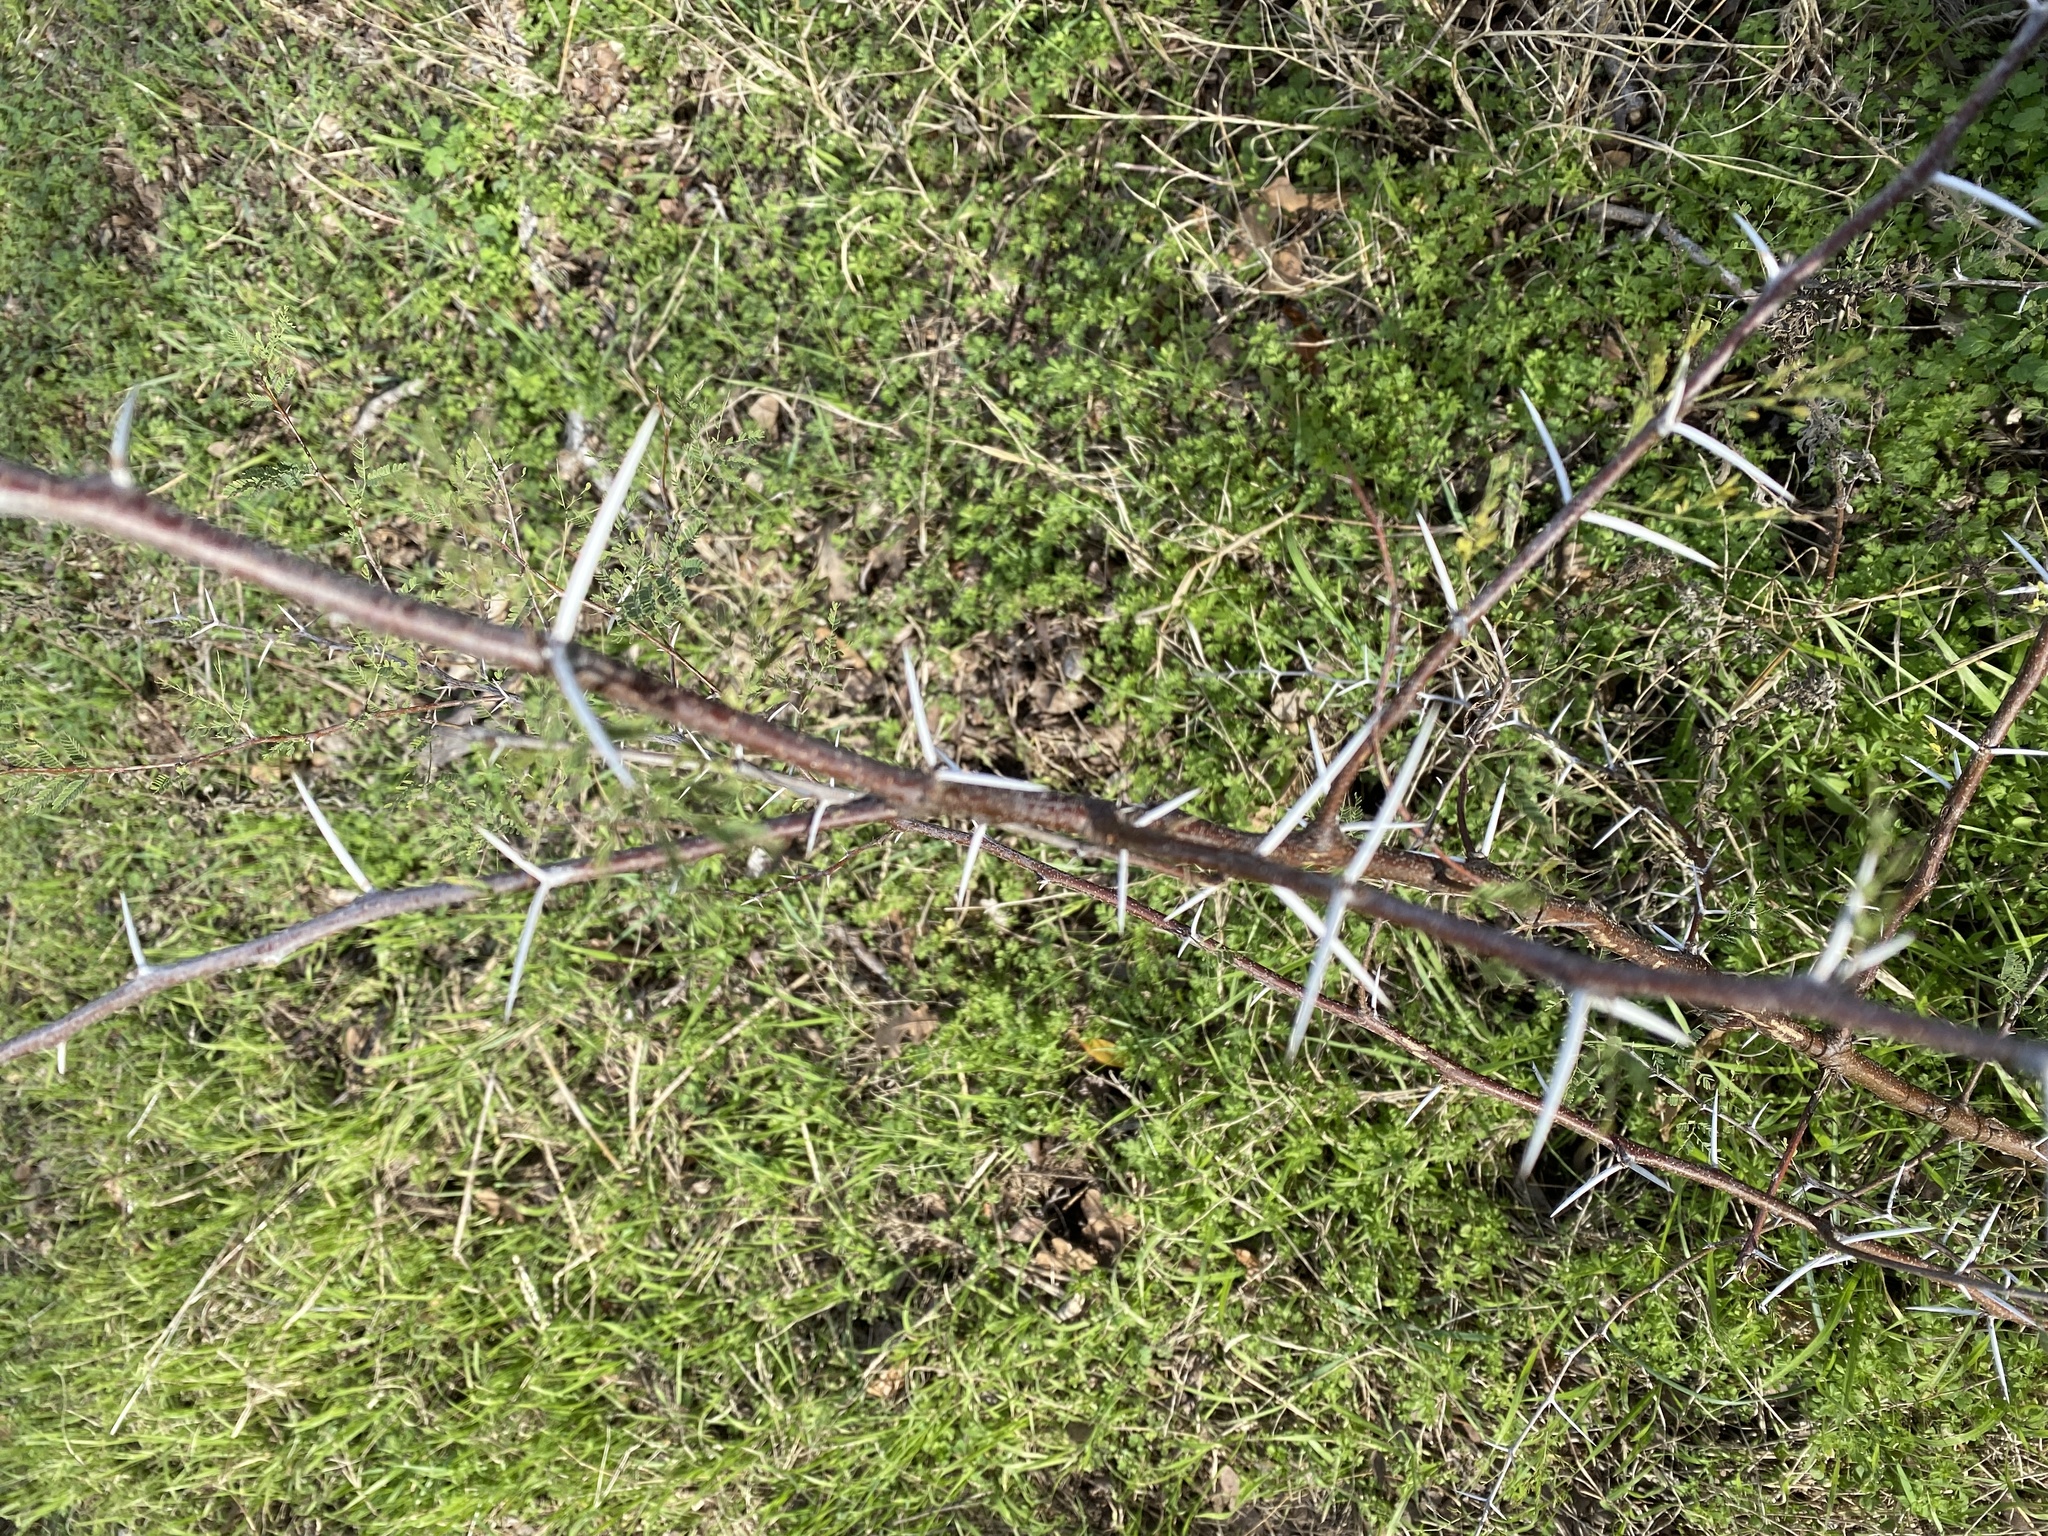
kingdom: Plantae
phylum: Tracheophyta
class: Magnoliopsida
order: Fabales
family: Fabaceae
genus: Vachellia
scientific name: Vachellia farnesiana
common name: Sweet acacia
